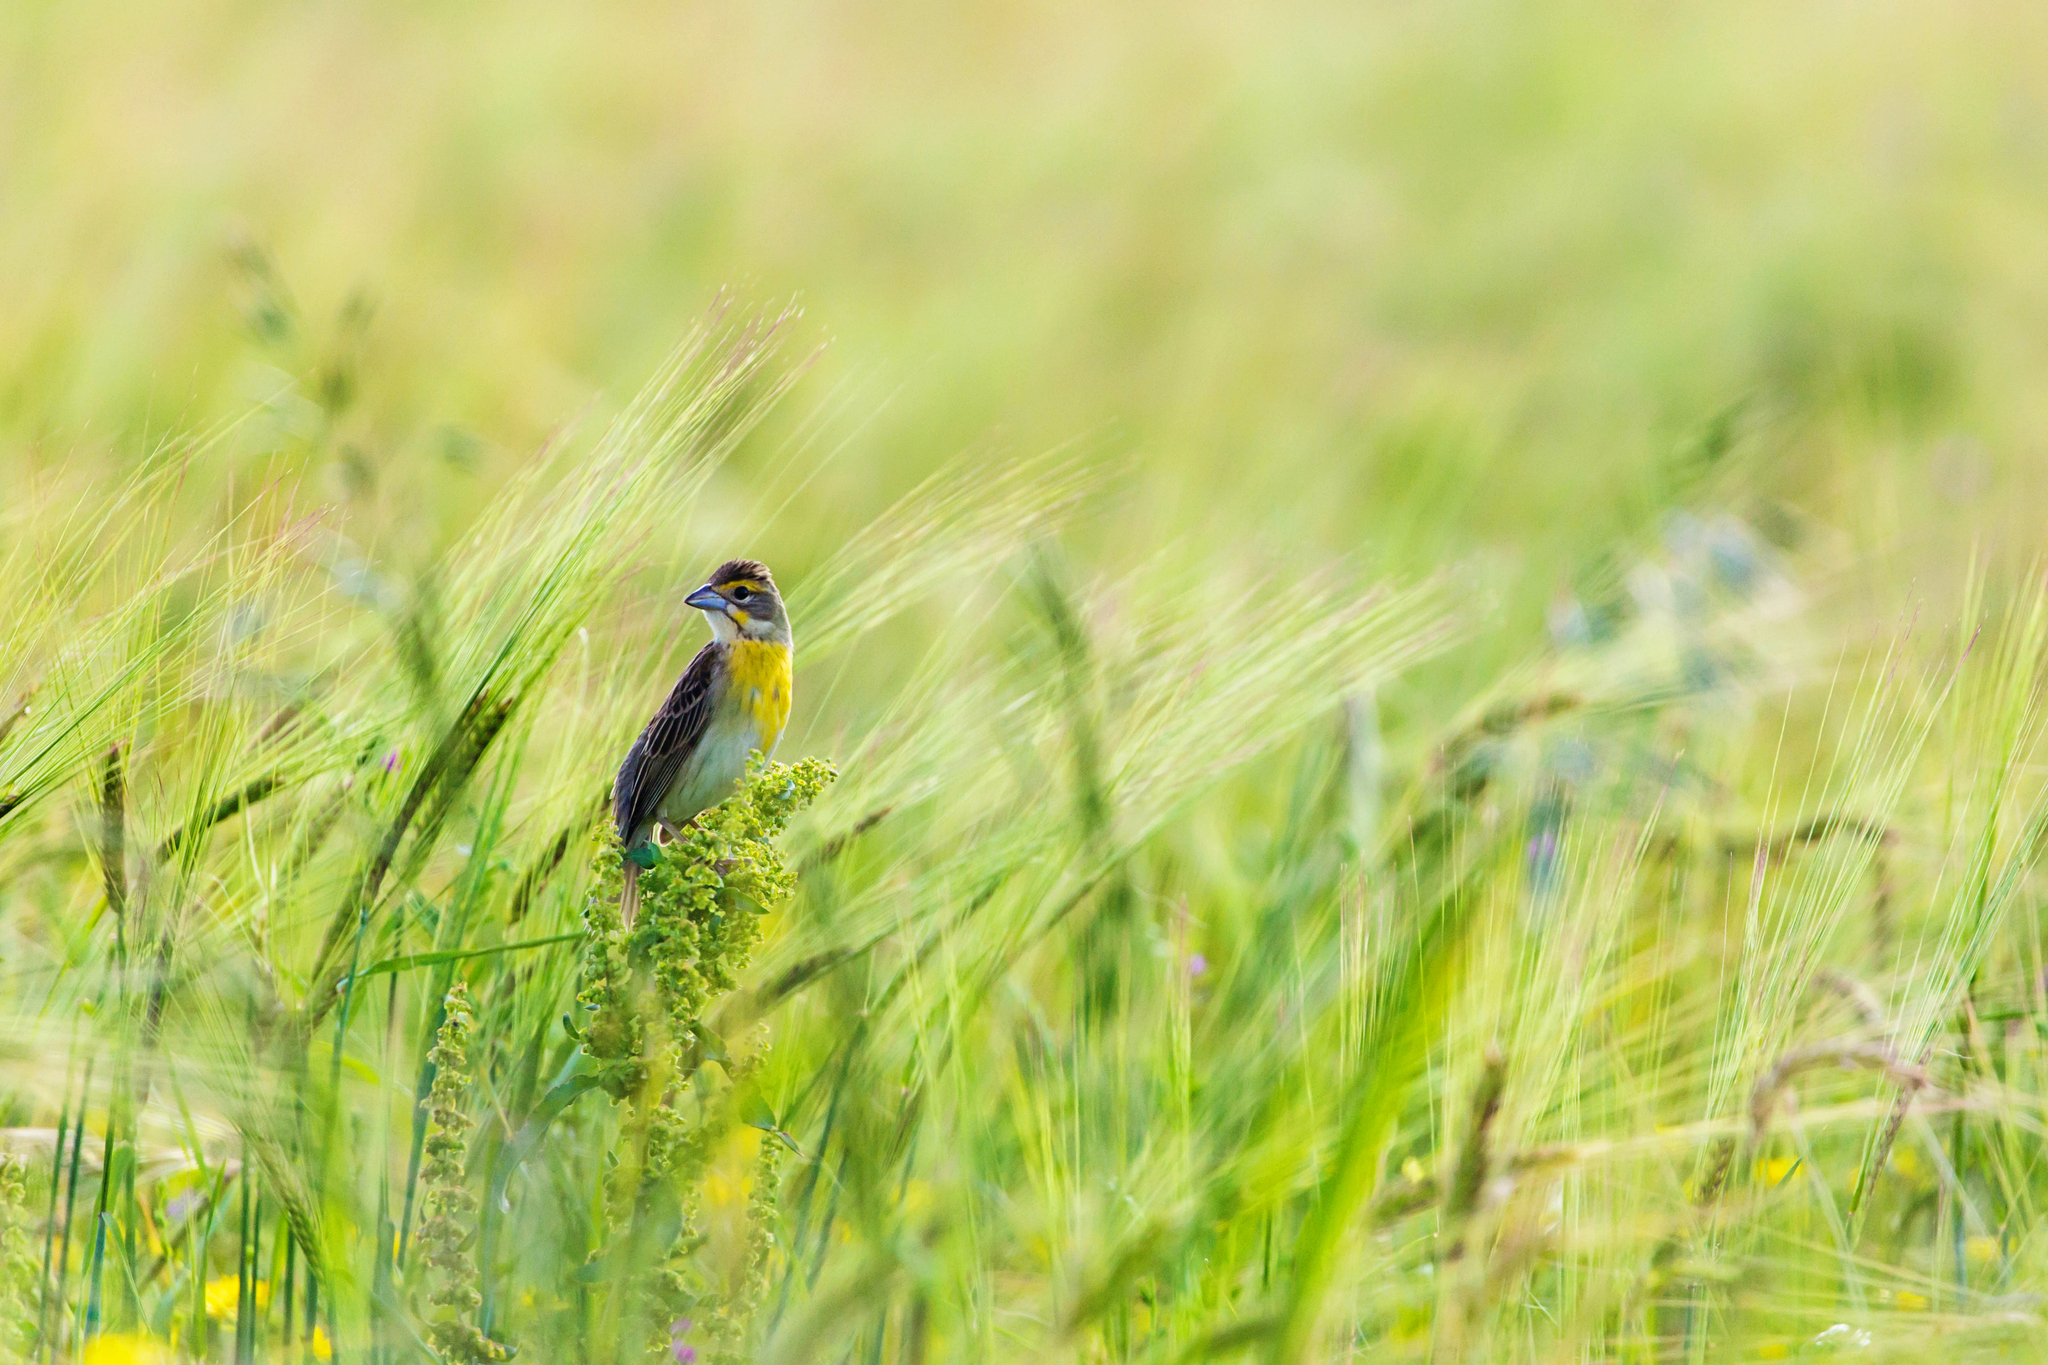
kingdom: Animalia
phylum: Chordata
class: Aves
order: Passeriformes
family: Cardinalidae
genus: Spiza
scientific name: Spiza americana
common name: Dickcissel
